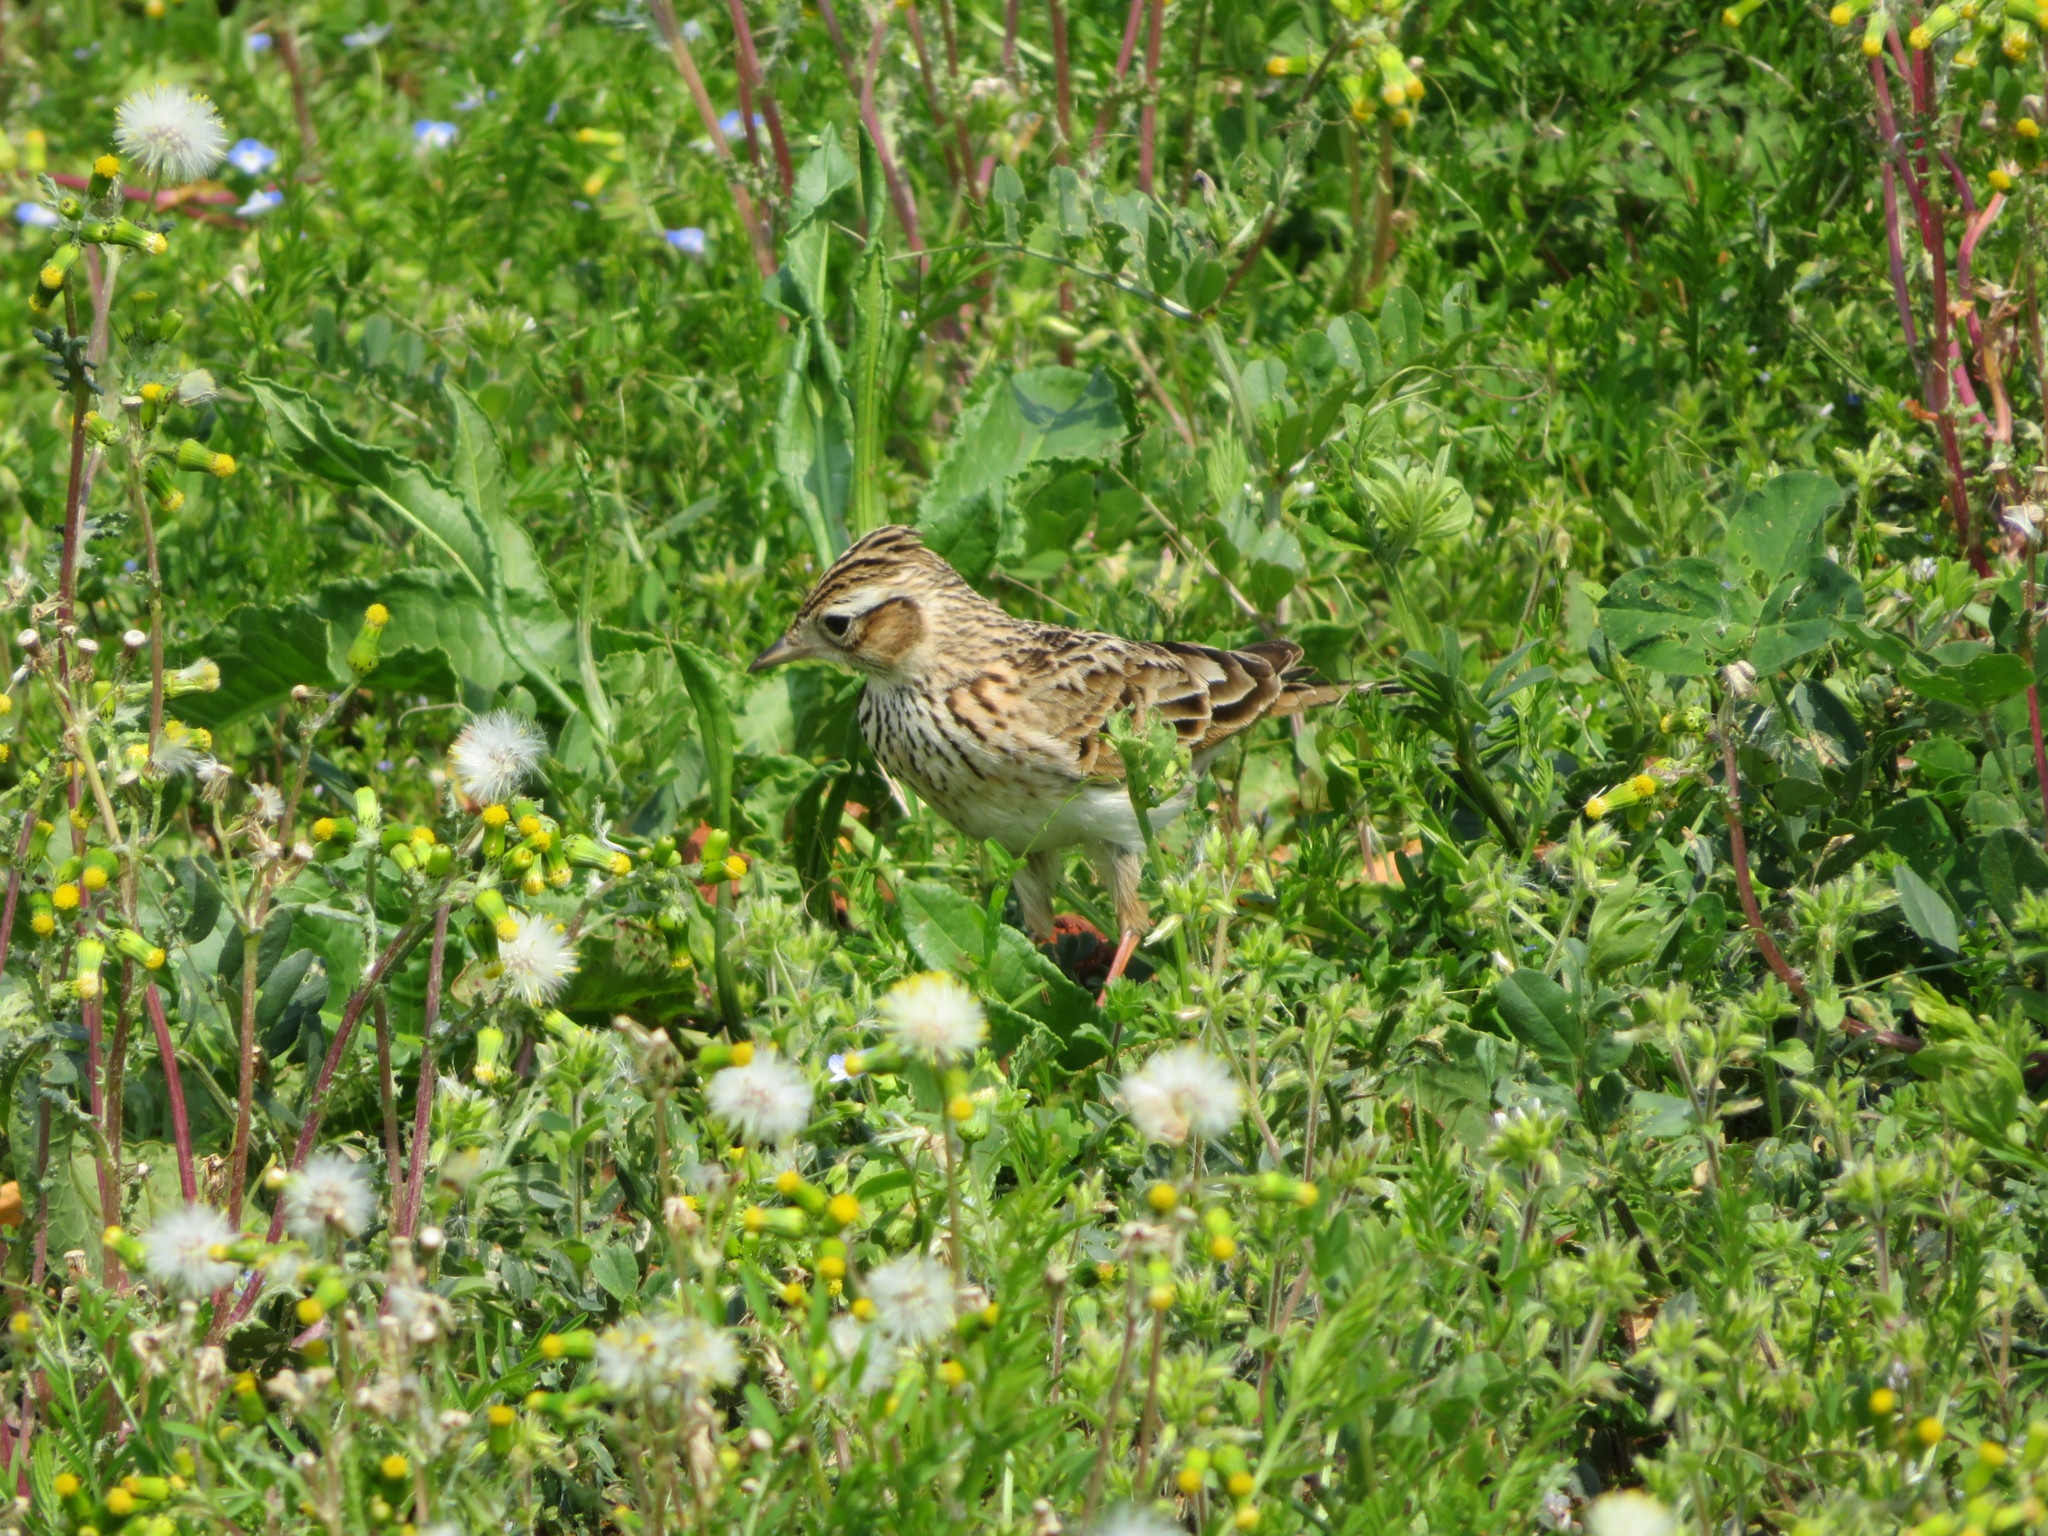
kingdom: Animalia
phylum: Chordata
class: Aves
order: Passeriformes
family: Alaudidae
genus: Alauda
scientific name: Alauda arvensis
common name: Eurasian skylark
